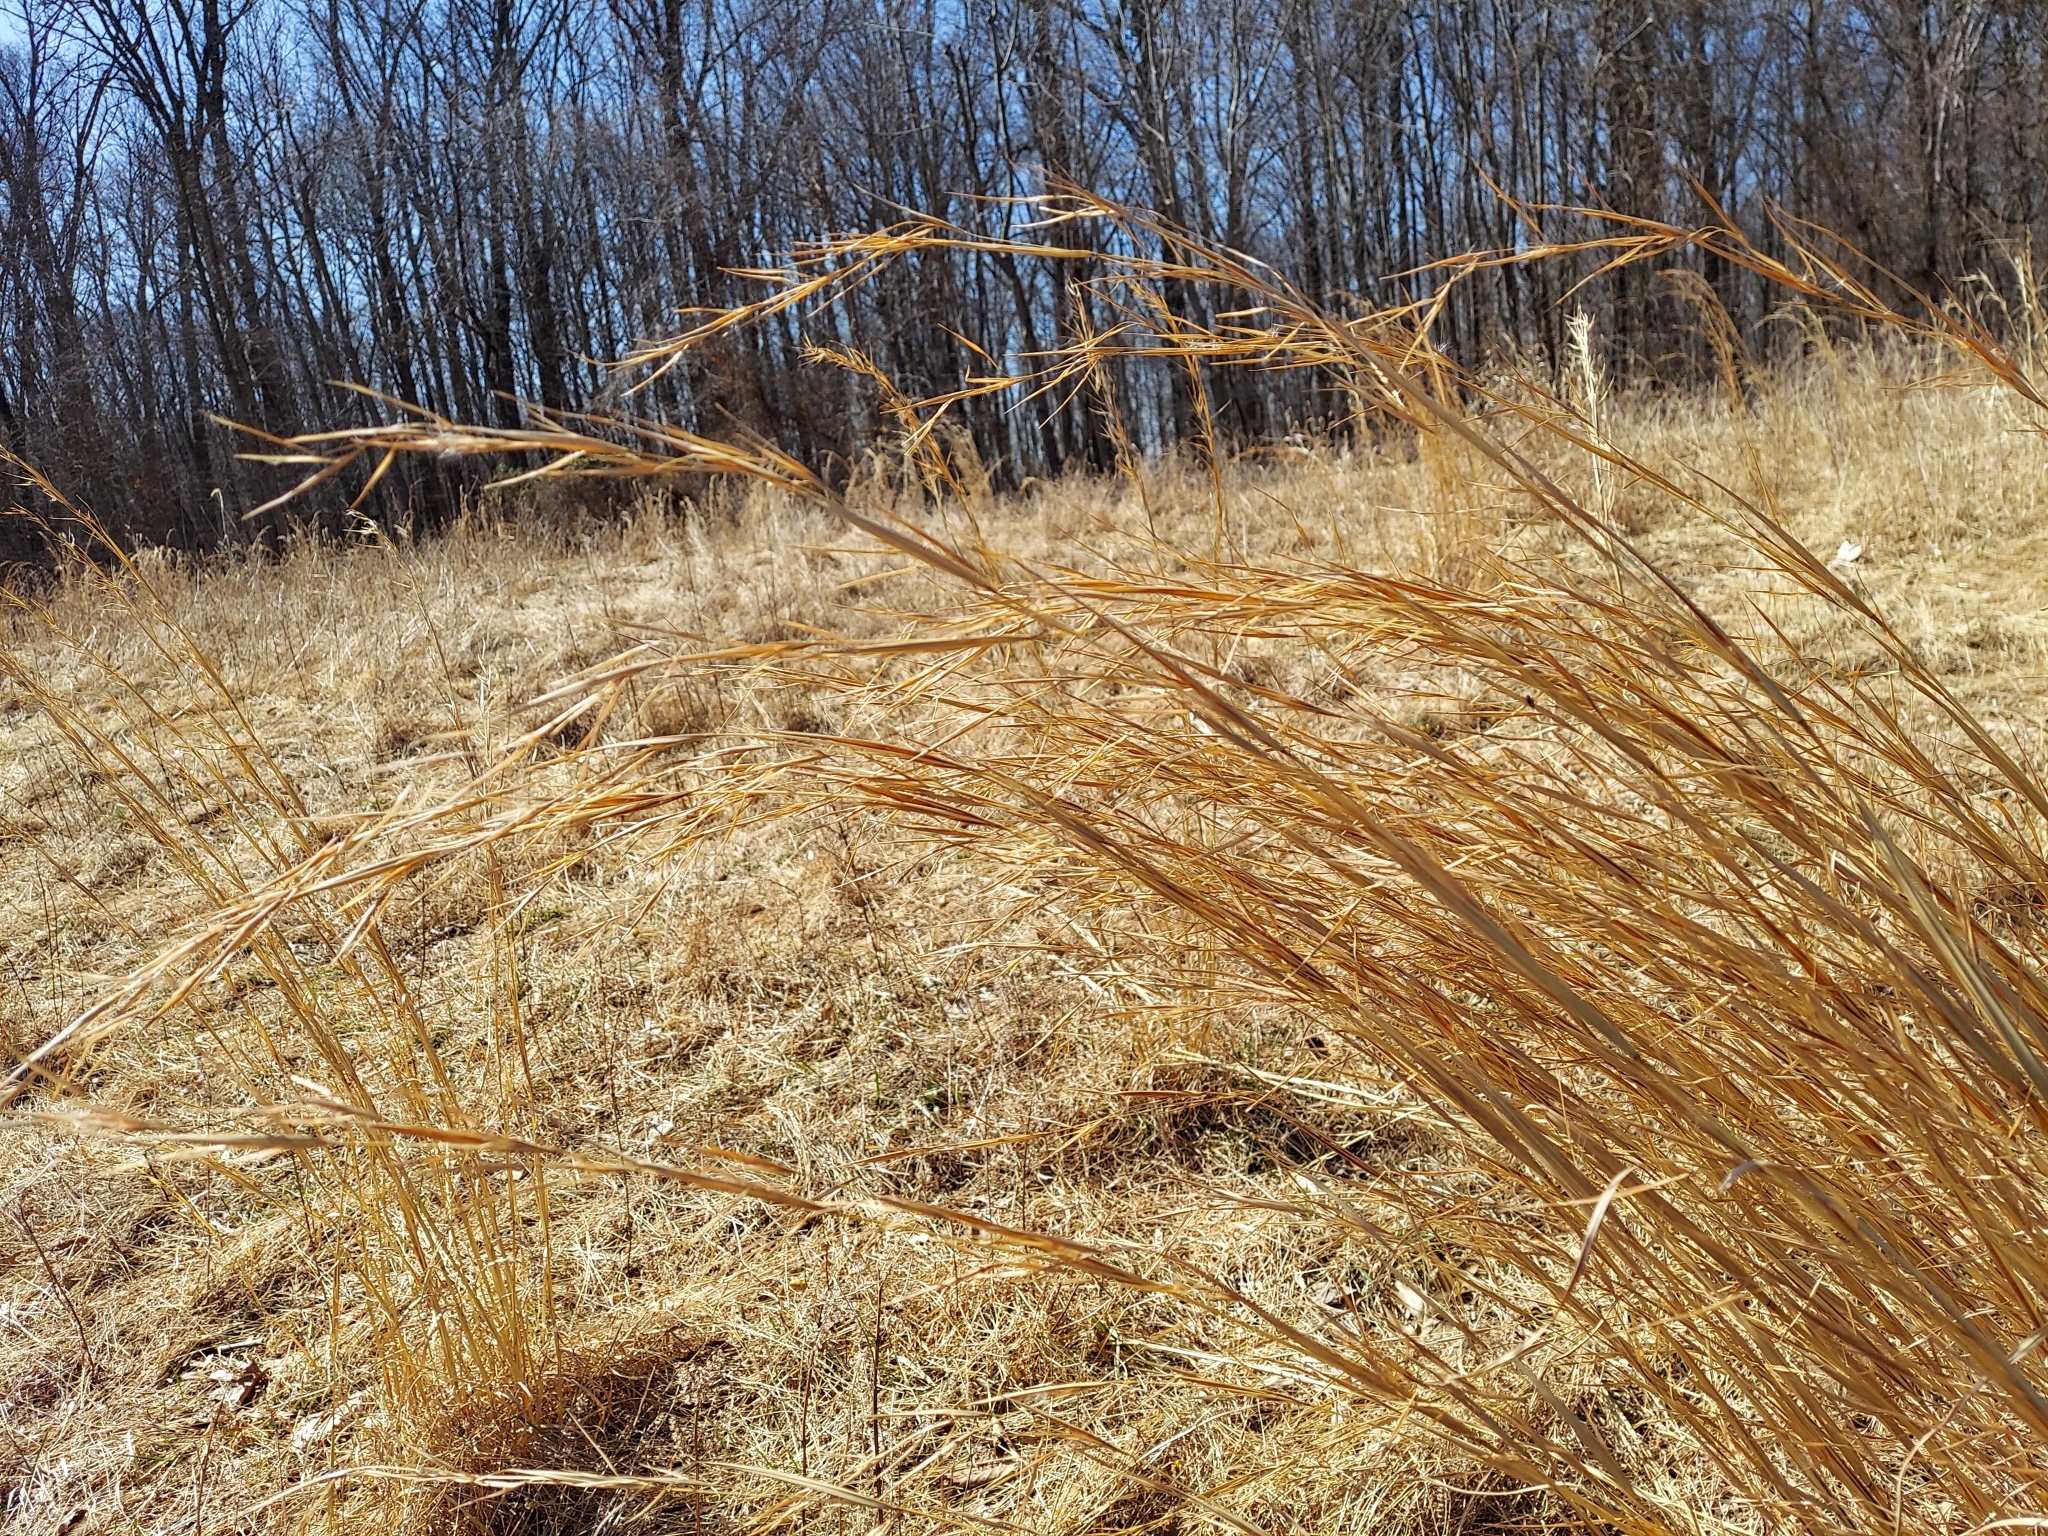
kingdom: Plantae
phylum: Tracheophyta
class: Liliopsida
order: Poales
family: Poaceae
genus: Andropogon
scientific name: Andropogon virginicus
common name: Broomsedge bluestem
